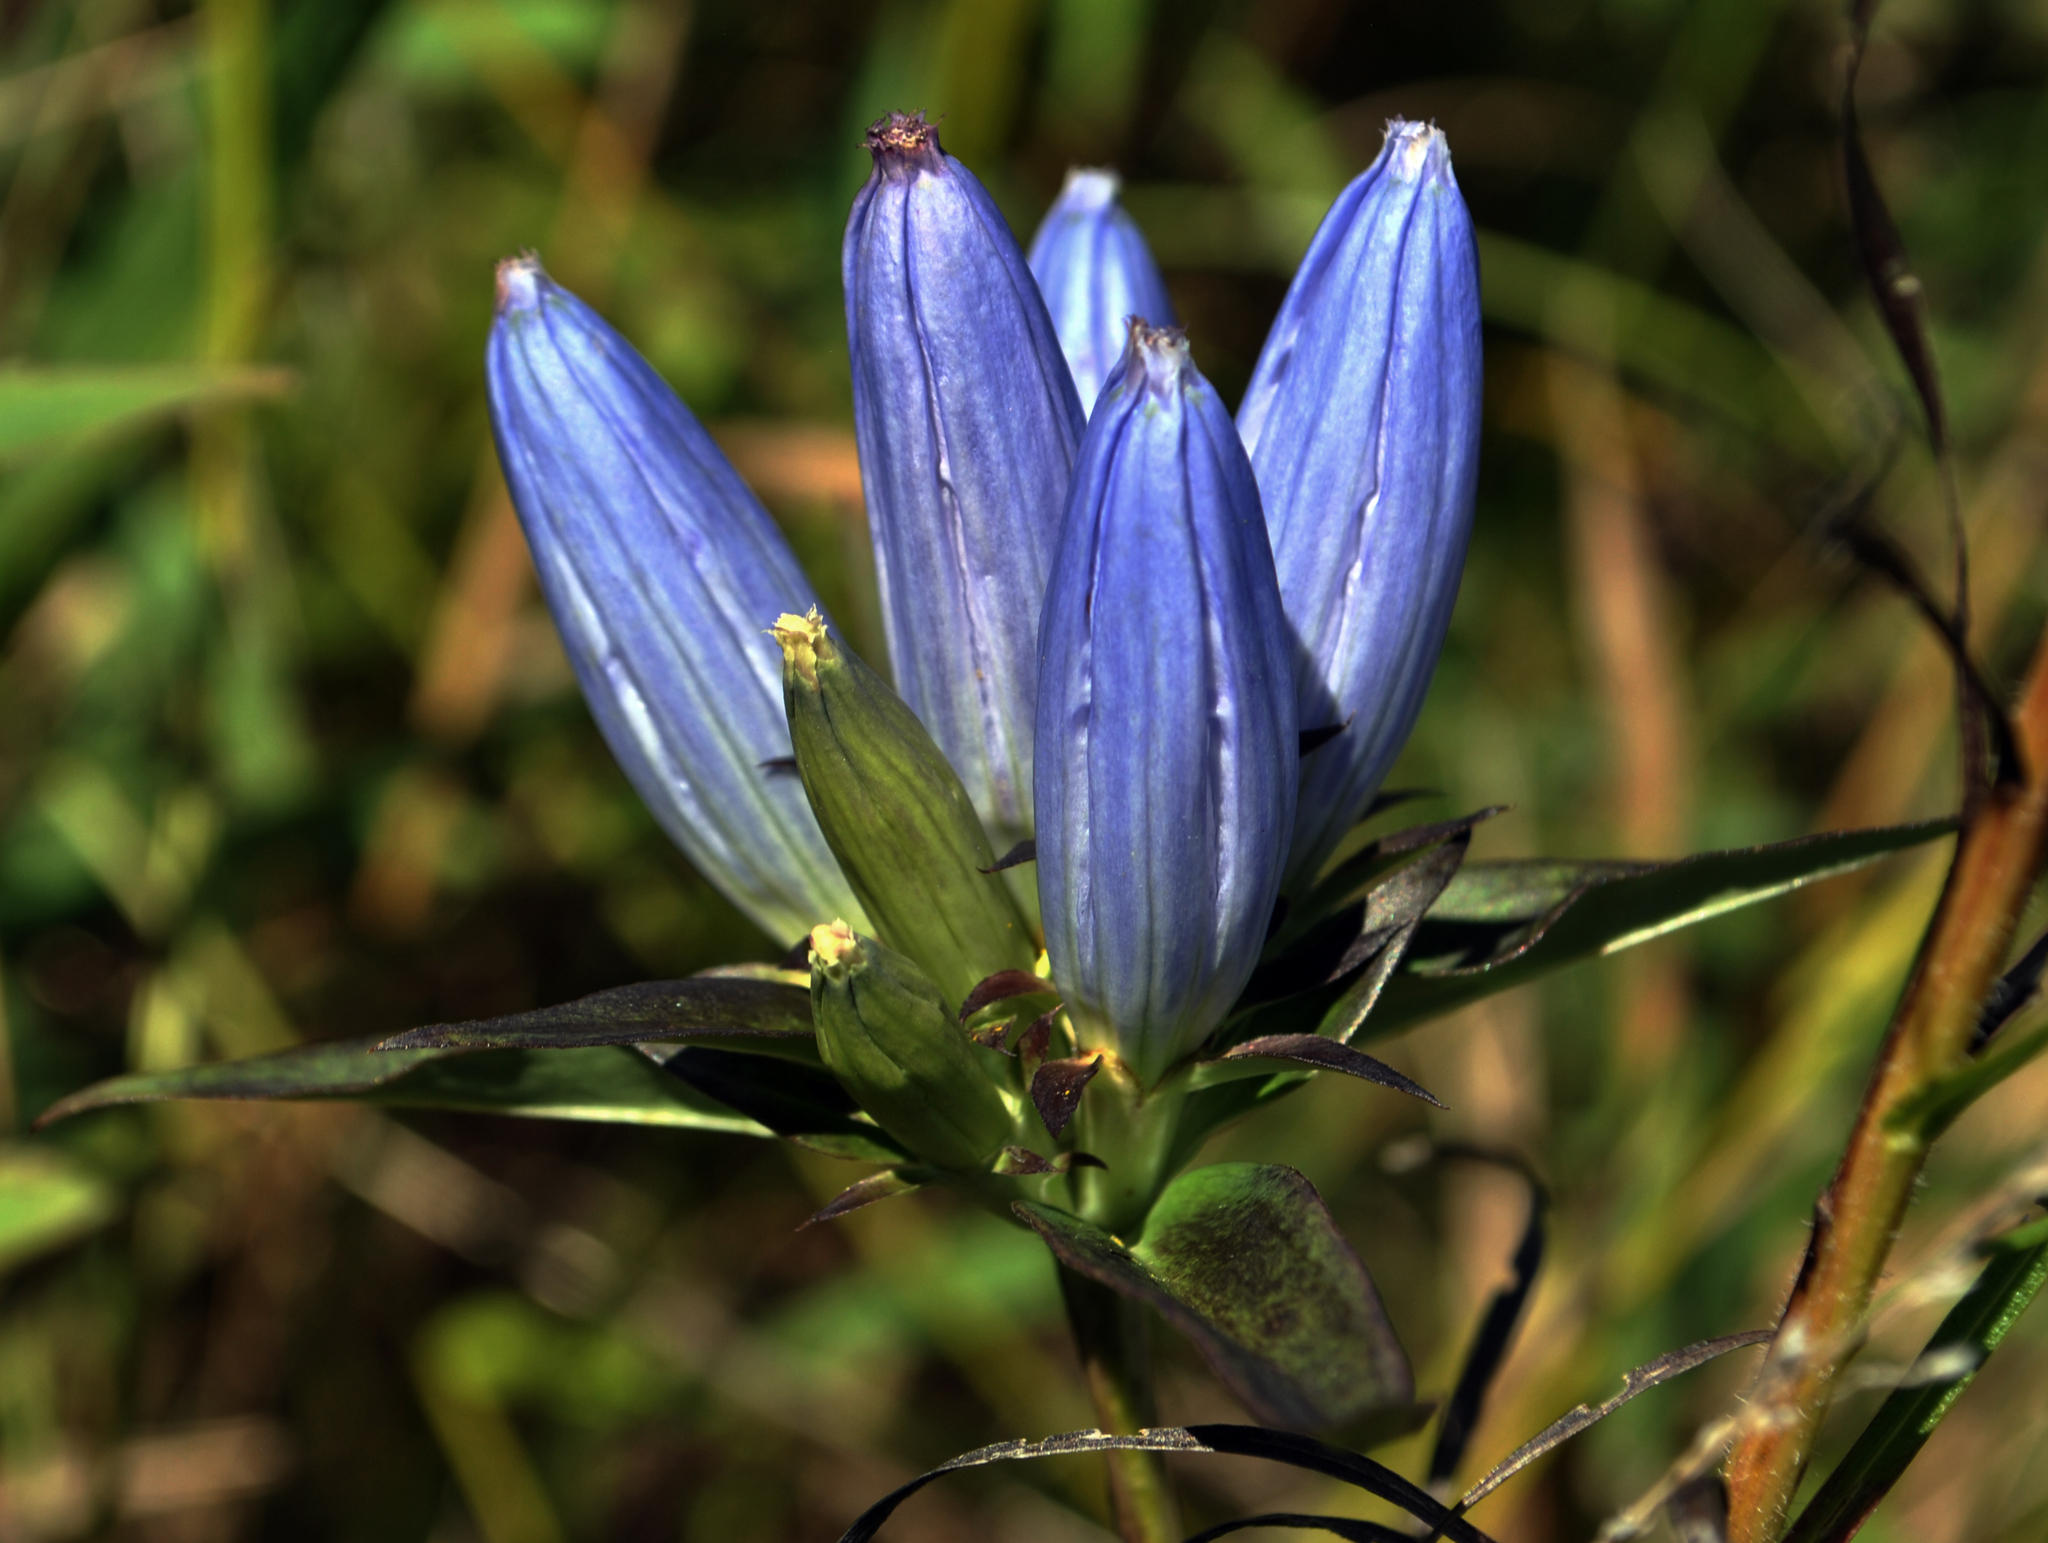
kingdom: Plantae
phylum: Tracheophyta
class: Magnoliopsida
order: Gentianales
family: Gentianaceae
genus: Gentiana
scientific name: Gentiana andrewsii
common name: Bottle gentian
